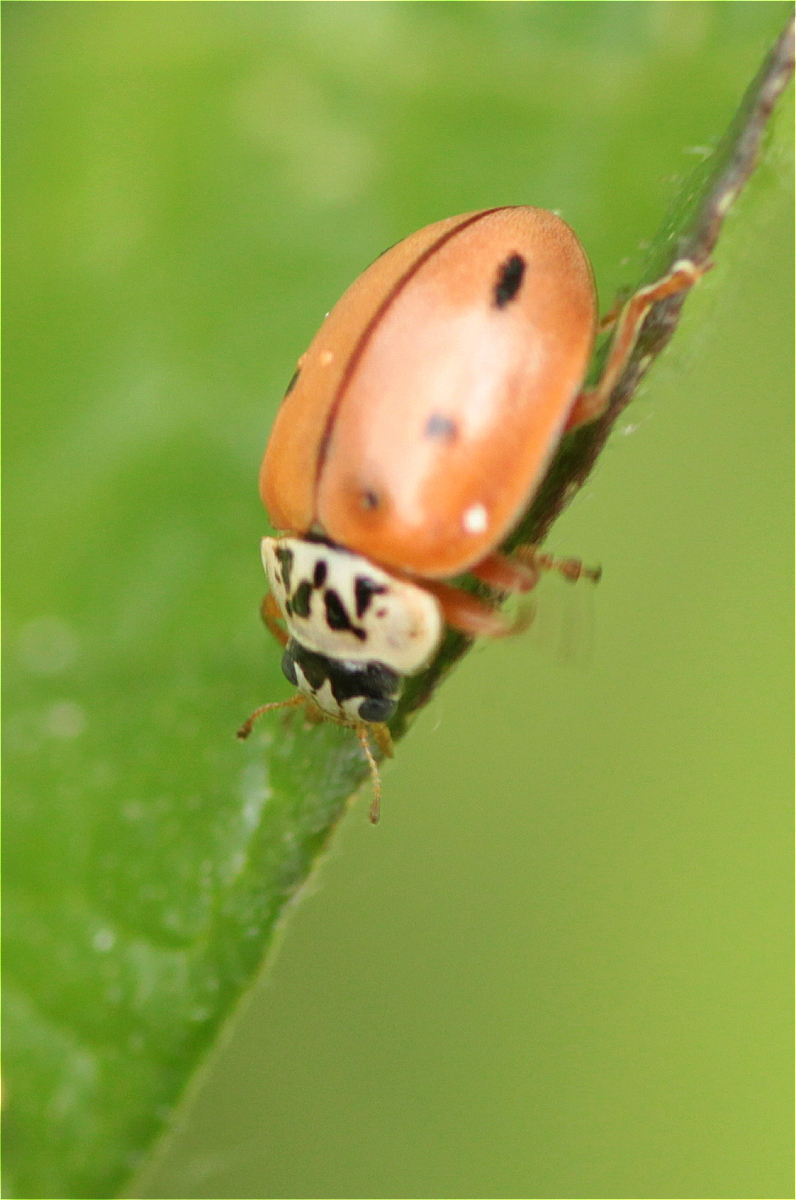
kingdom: Animalia
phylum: Arthropoda
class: Insecta
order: Coleoptera
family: Coccinellidae
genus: Mulsantina
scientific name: Mulsantina
